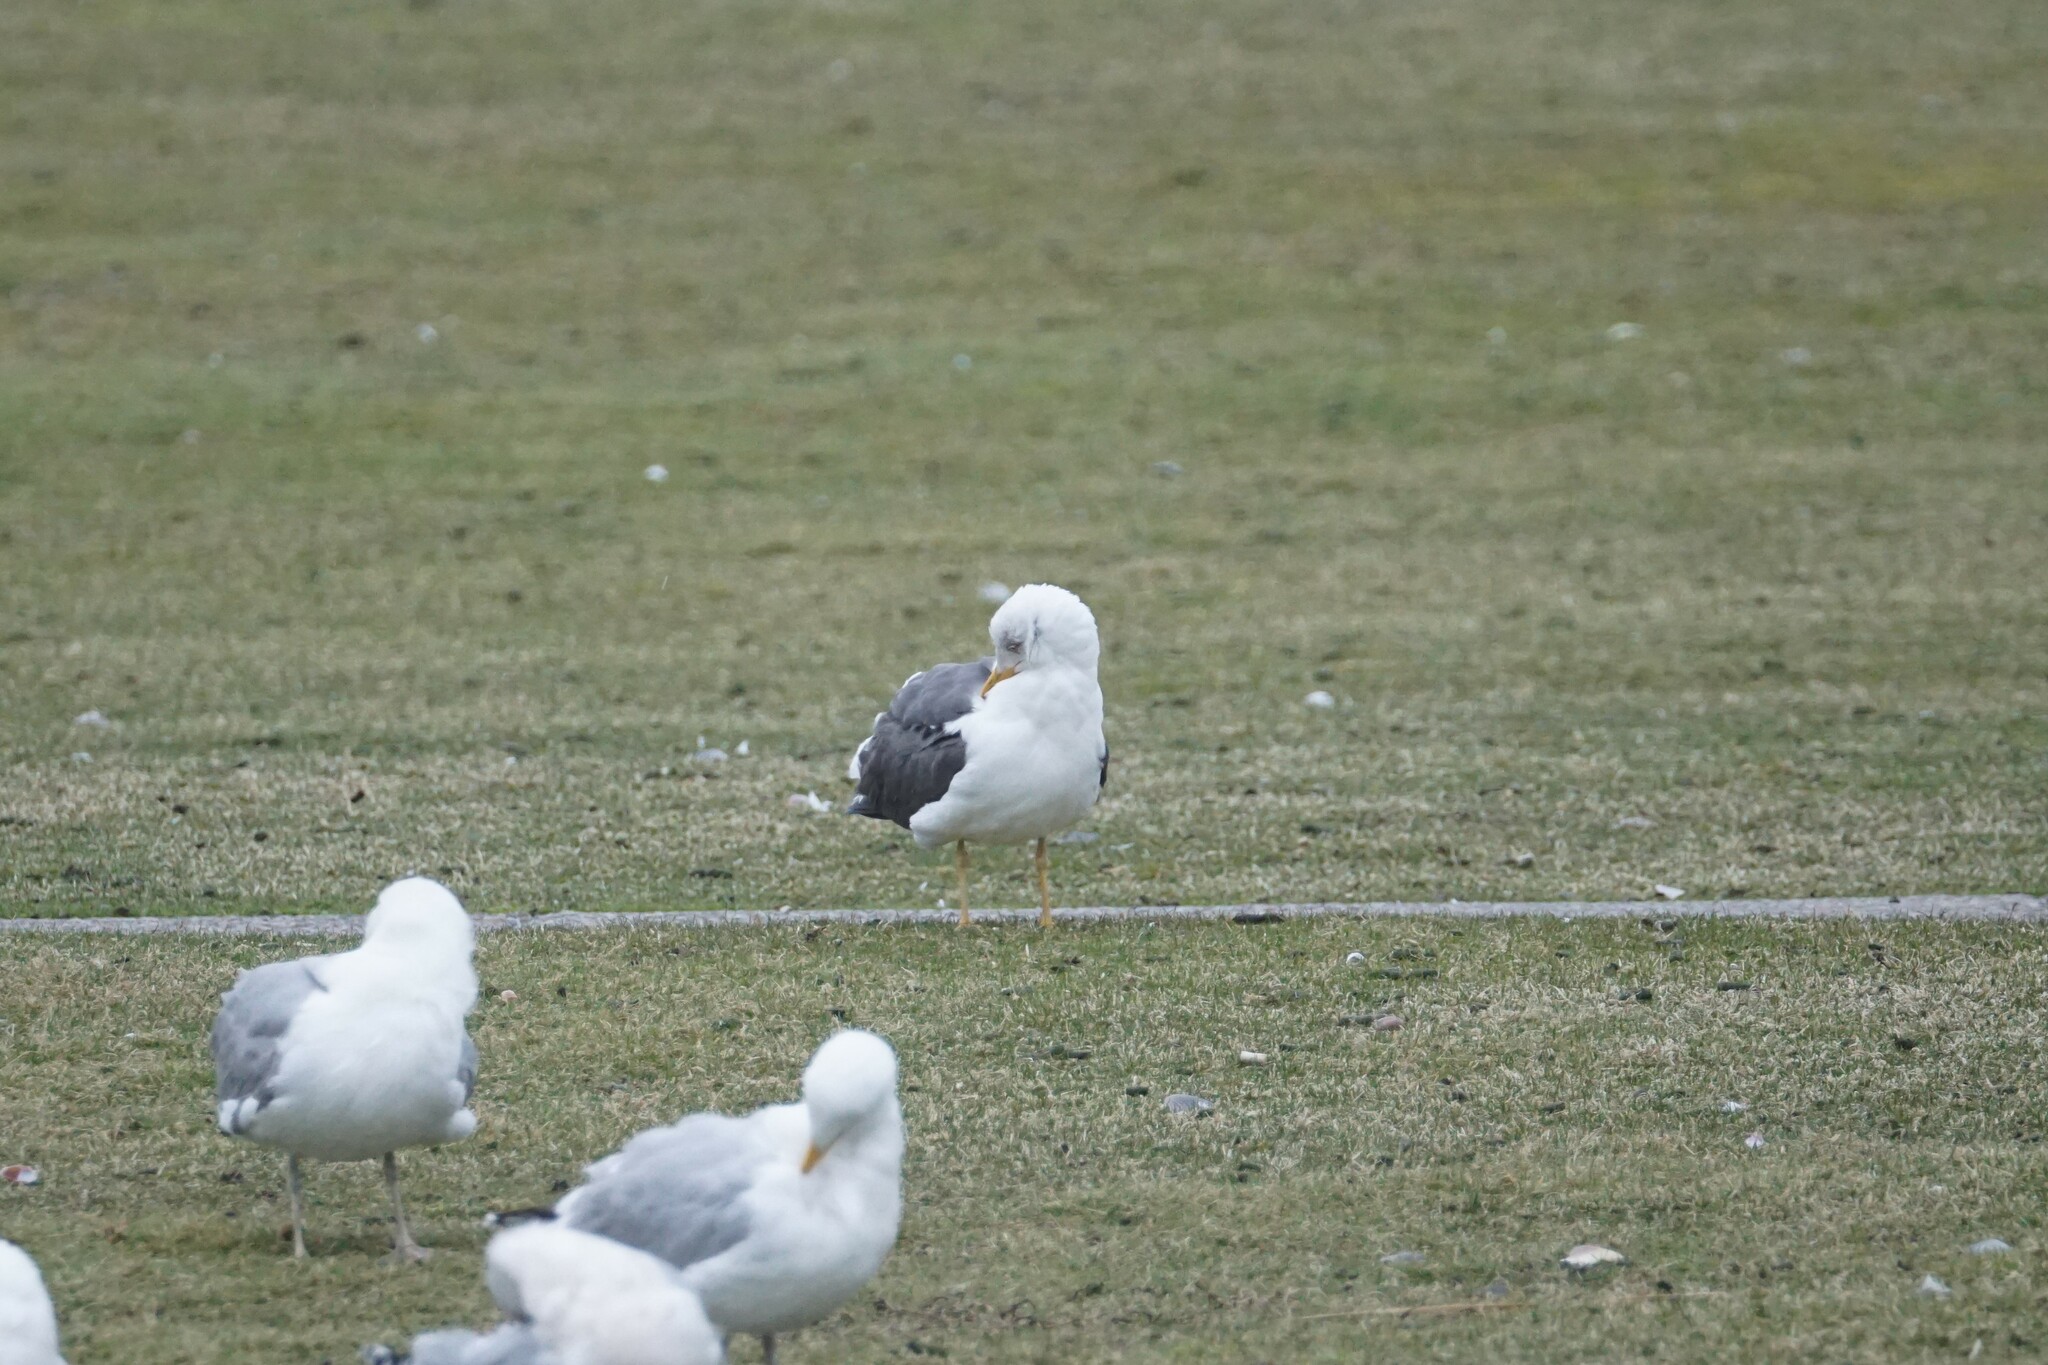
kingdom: Animalia
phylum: Chordata
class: Aves
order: Charadriiformes
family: Laridae
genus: Larus
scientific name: Larus fuscus
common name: Lesser black-backed gull
